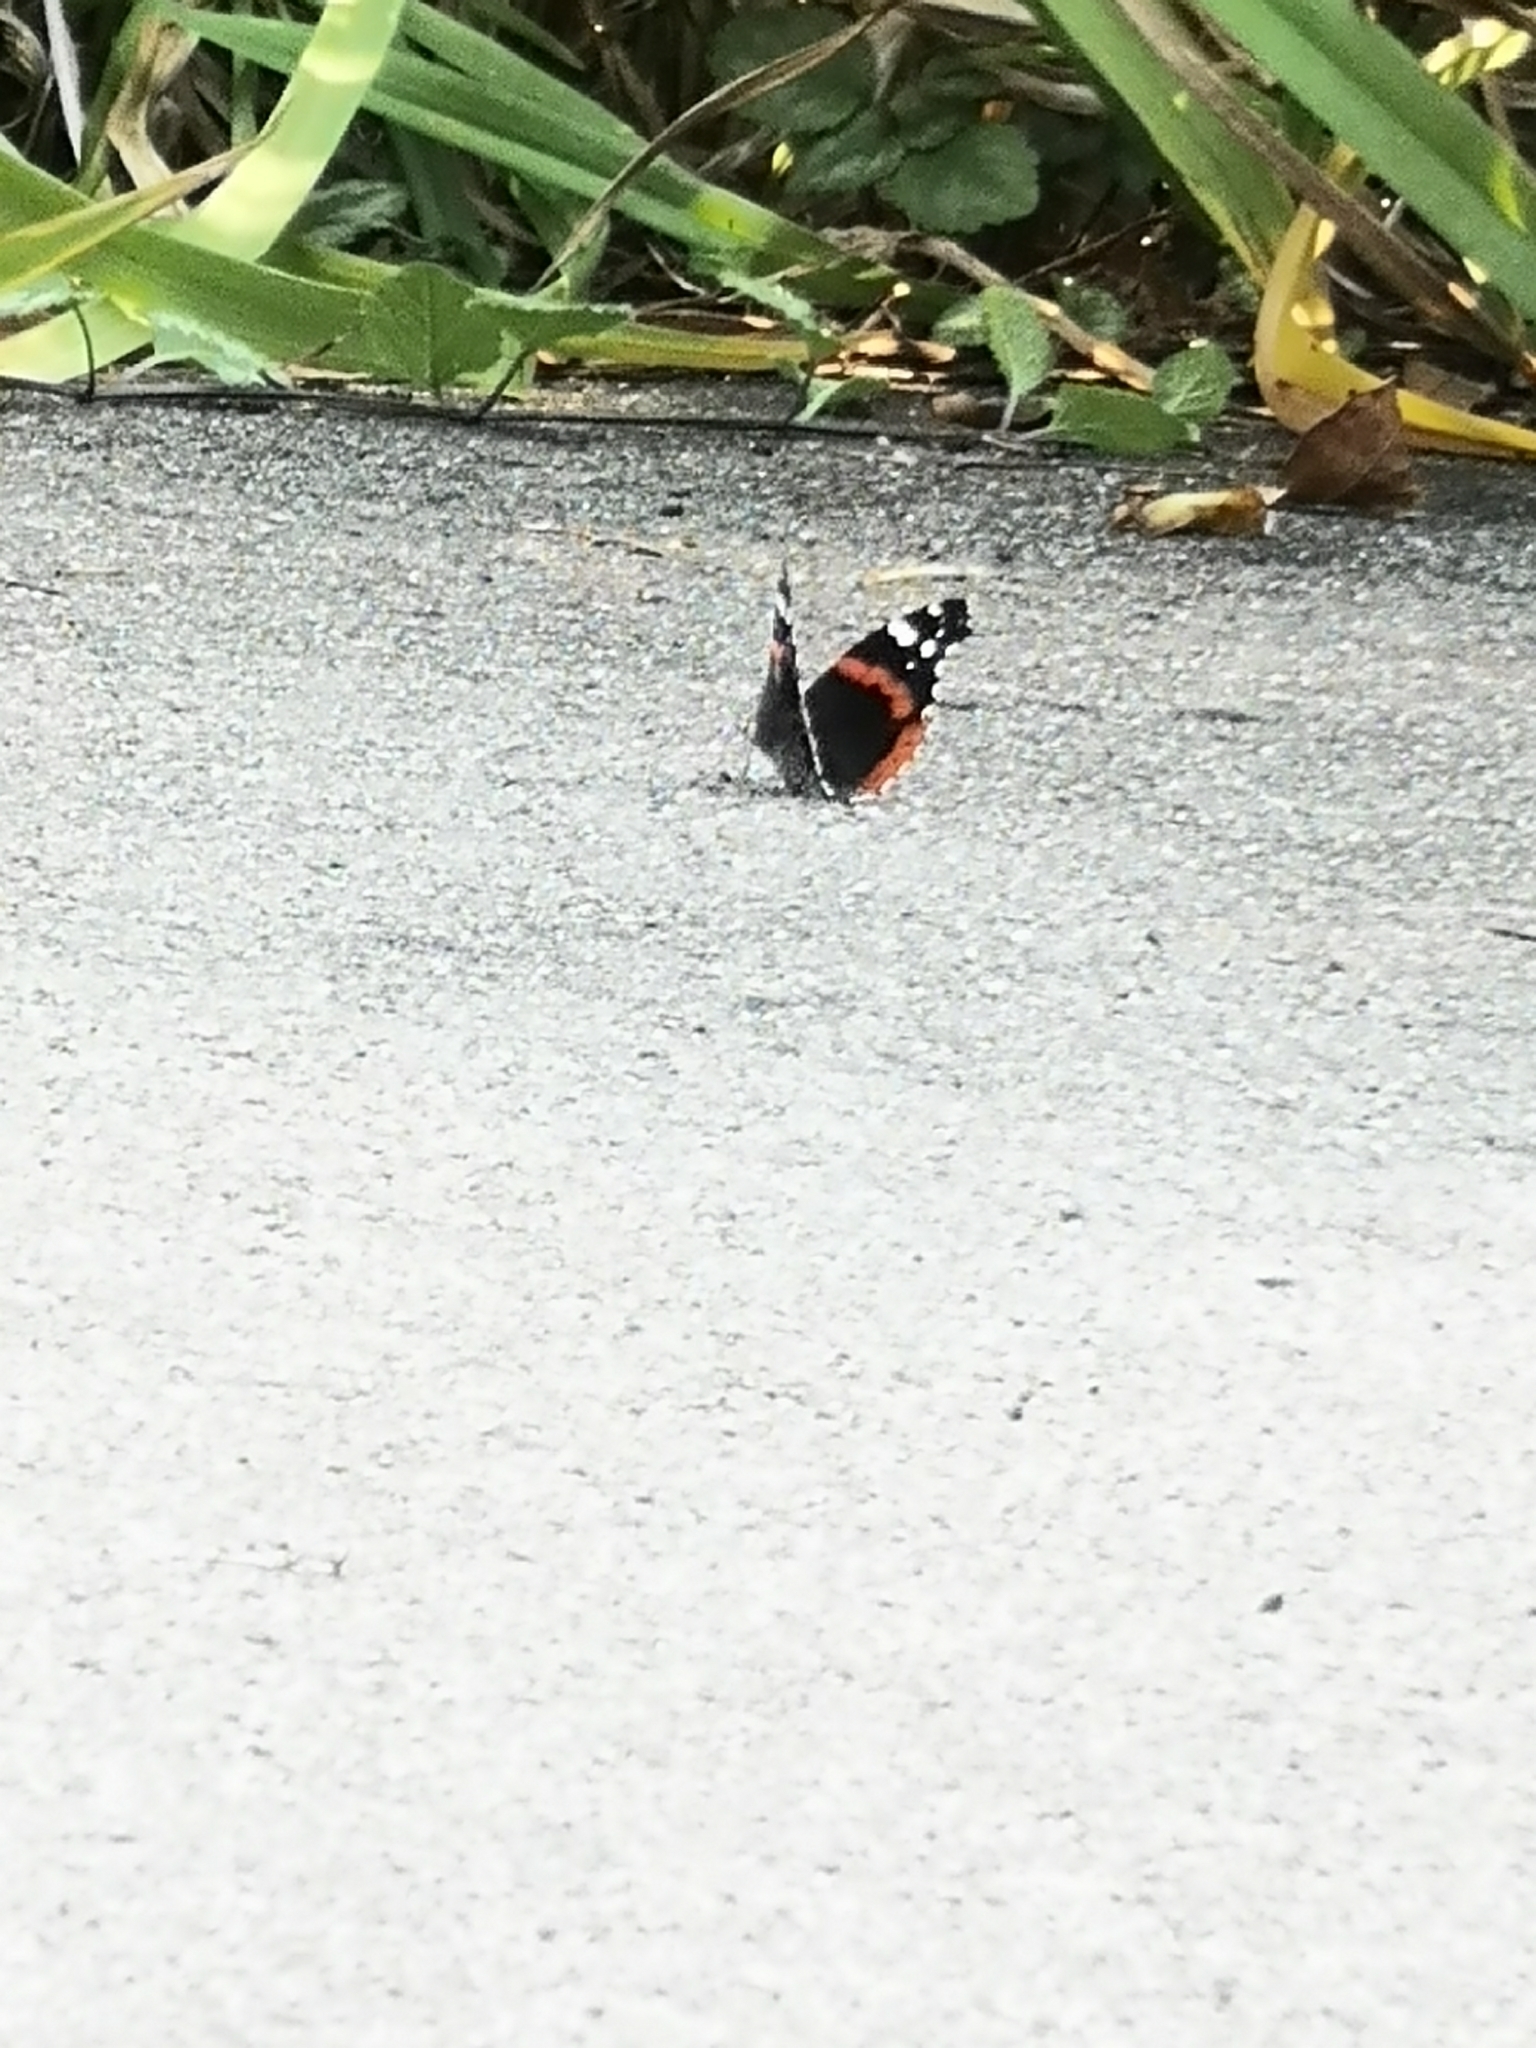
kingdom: Animalia
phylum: Arthropoda
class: Insecta
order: Lepidoptera
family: Nymphalidae
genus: Vanessa
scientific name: Vanessa atalanta
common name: Red admiral
